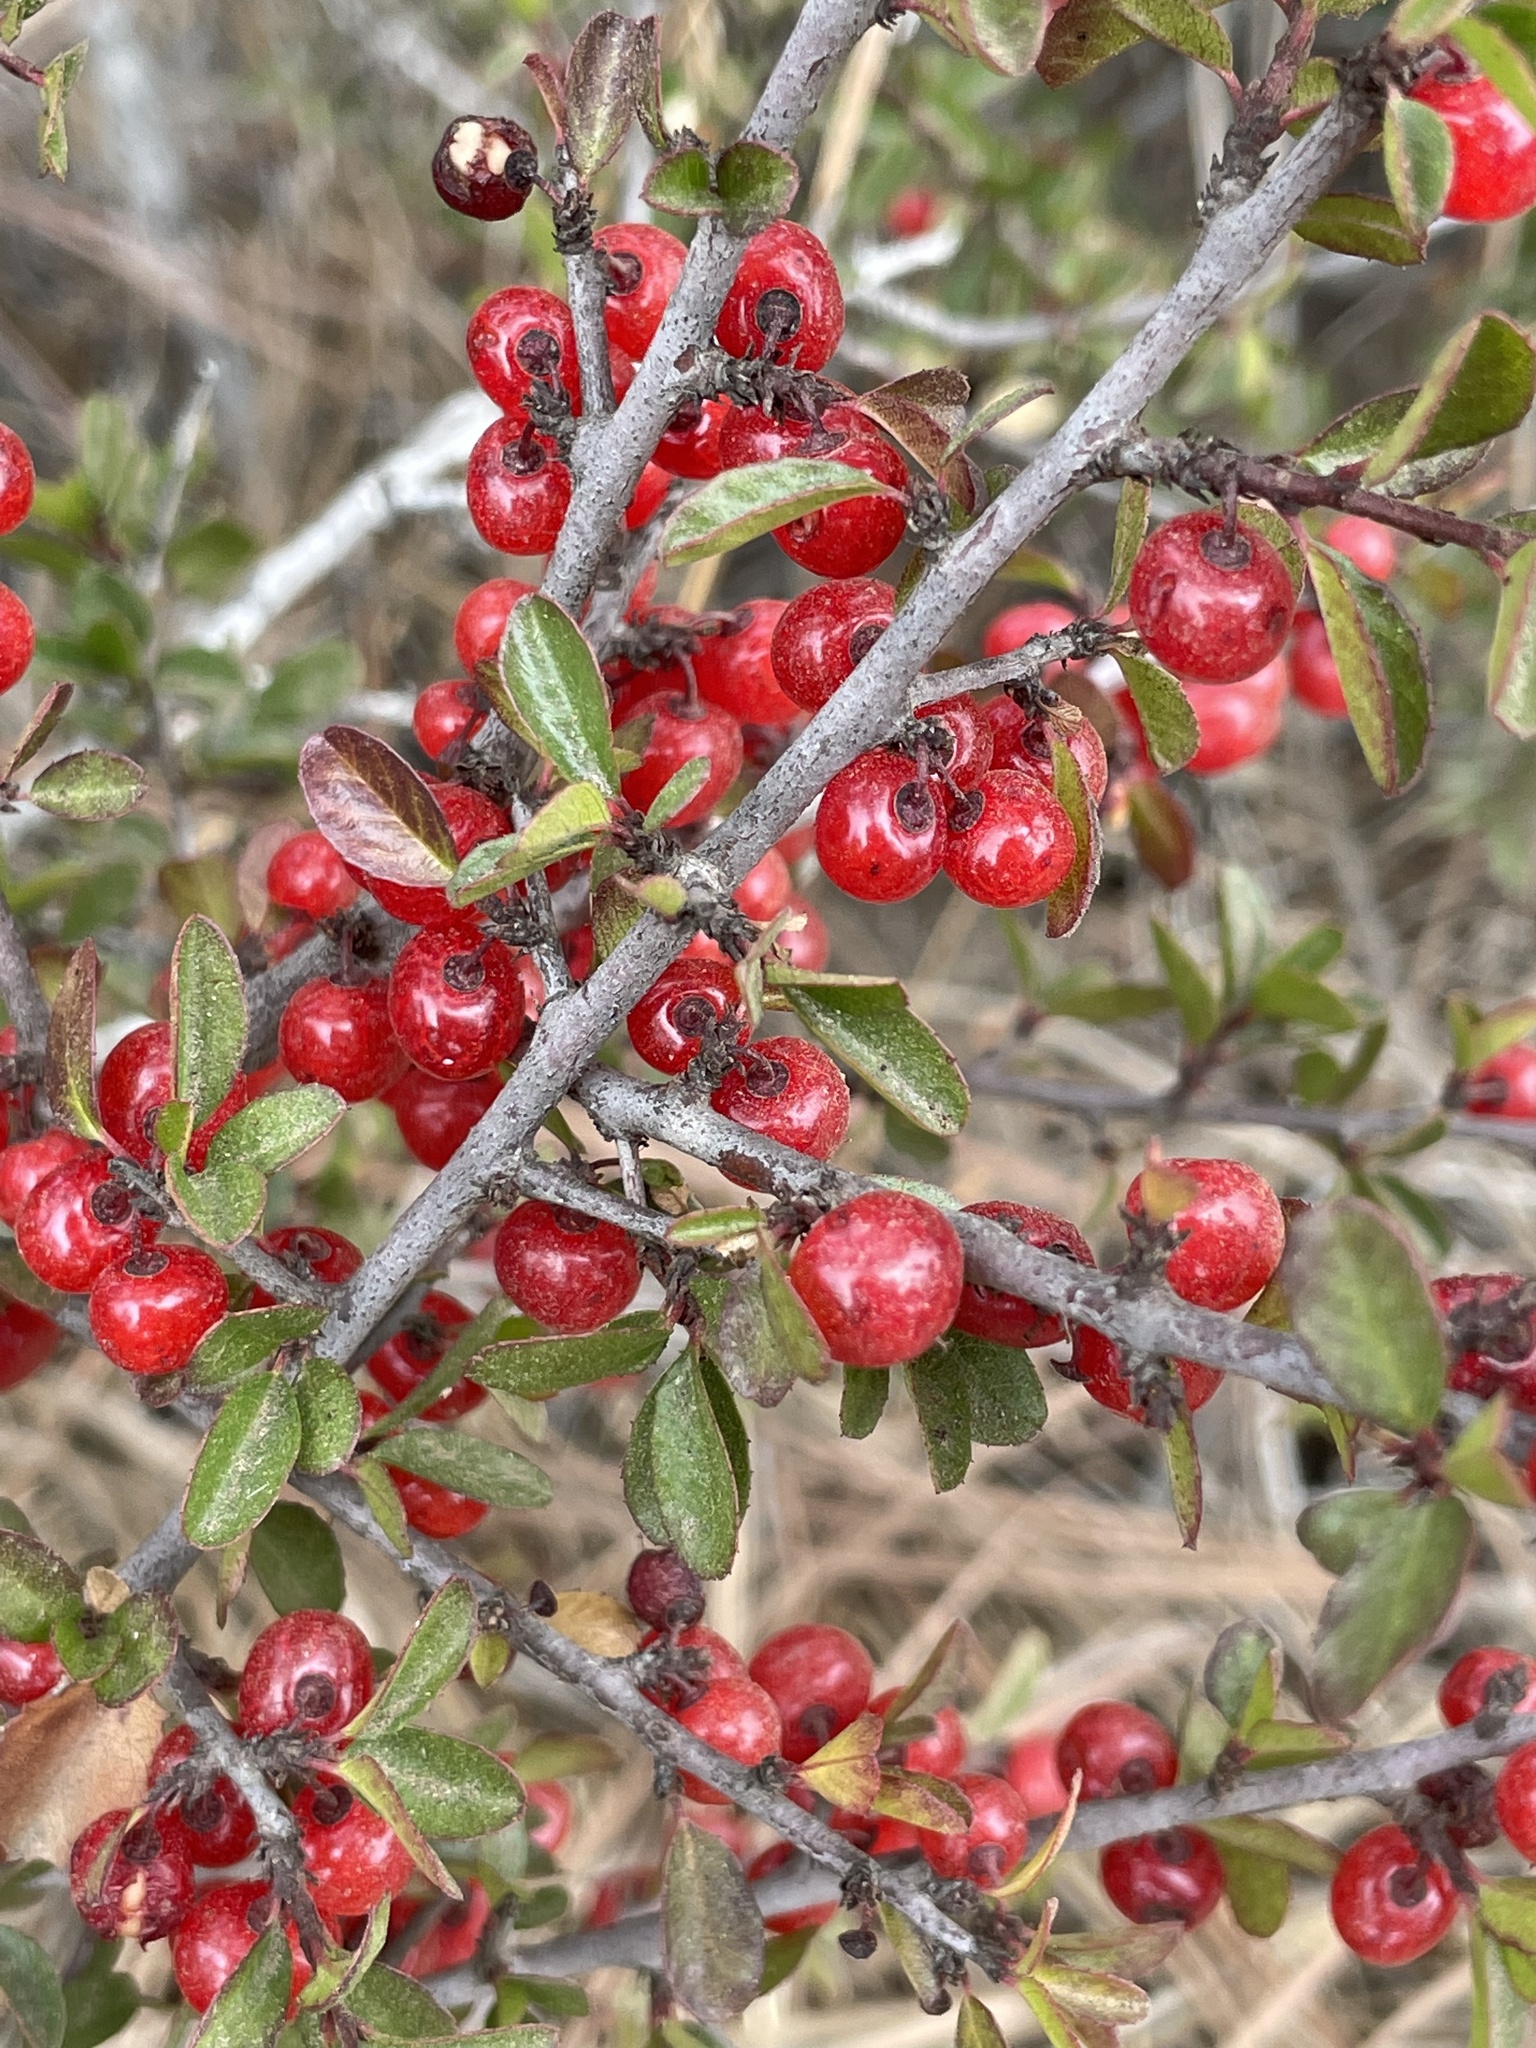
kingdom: Plantae
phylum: Tracheophyta
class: Magnoliopsida
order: Rosales
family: Rhamnaceae
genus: Endotropis
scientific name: Endotropis crocea
